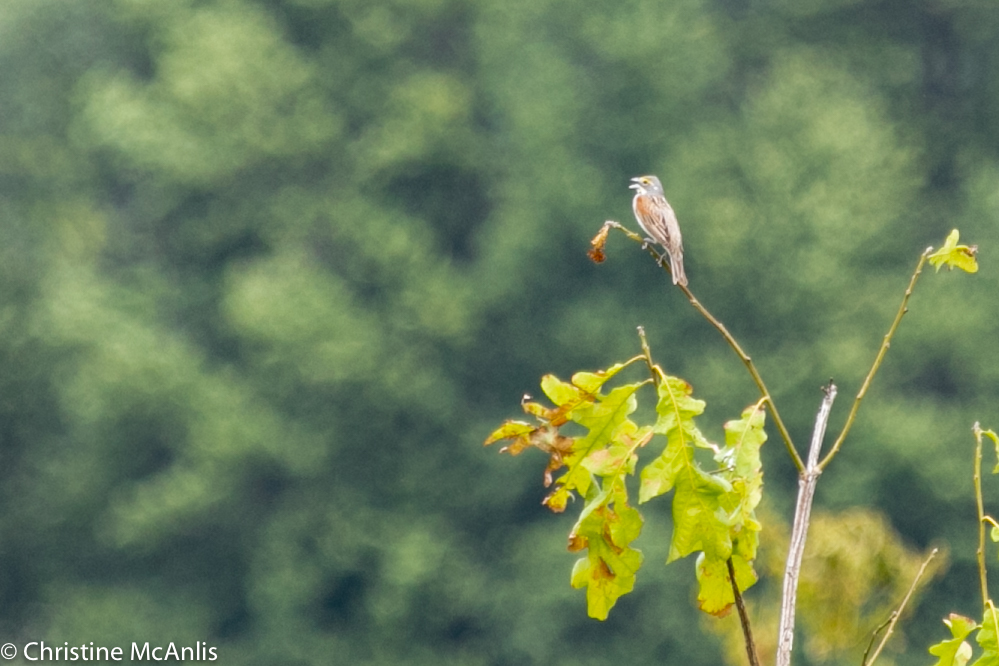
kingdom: Animalia
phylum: Chordata
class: Aves
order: Passeriformes
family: Cardinalidae
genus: Spiza
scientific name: Spiza americana
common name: Dickcissel
